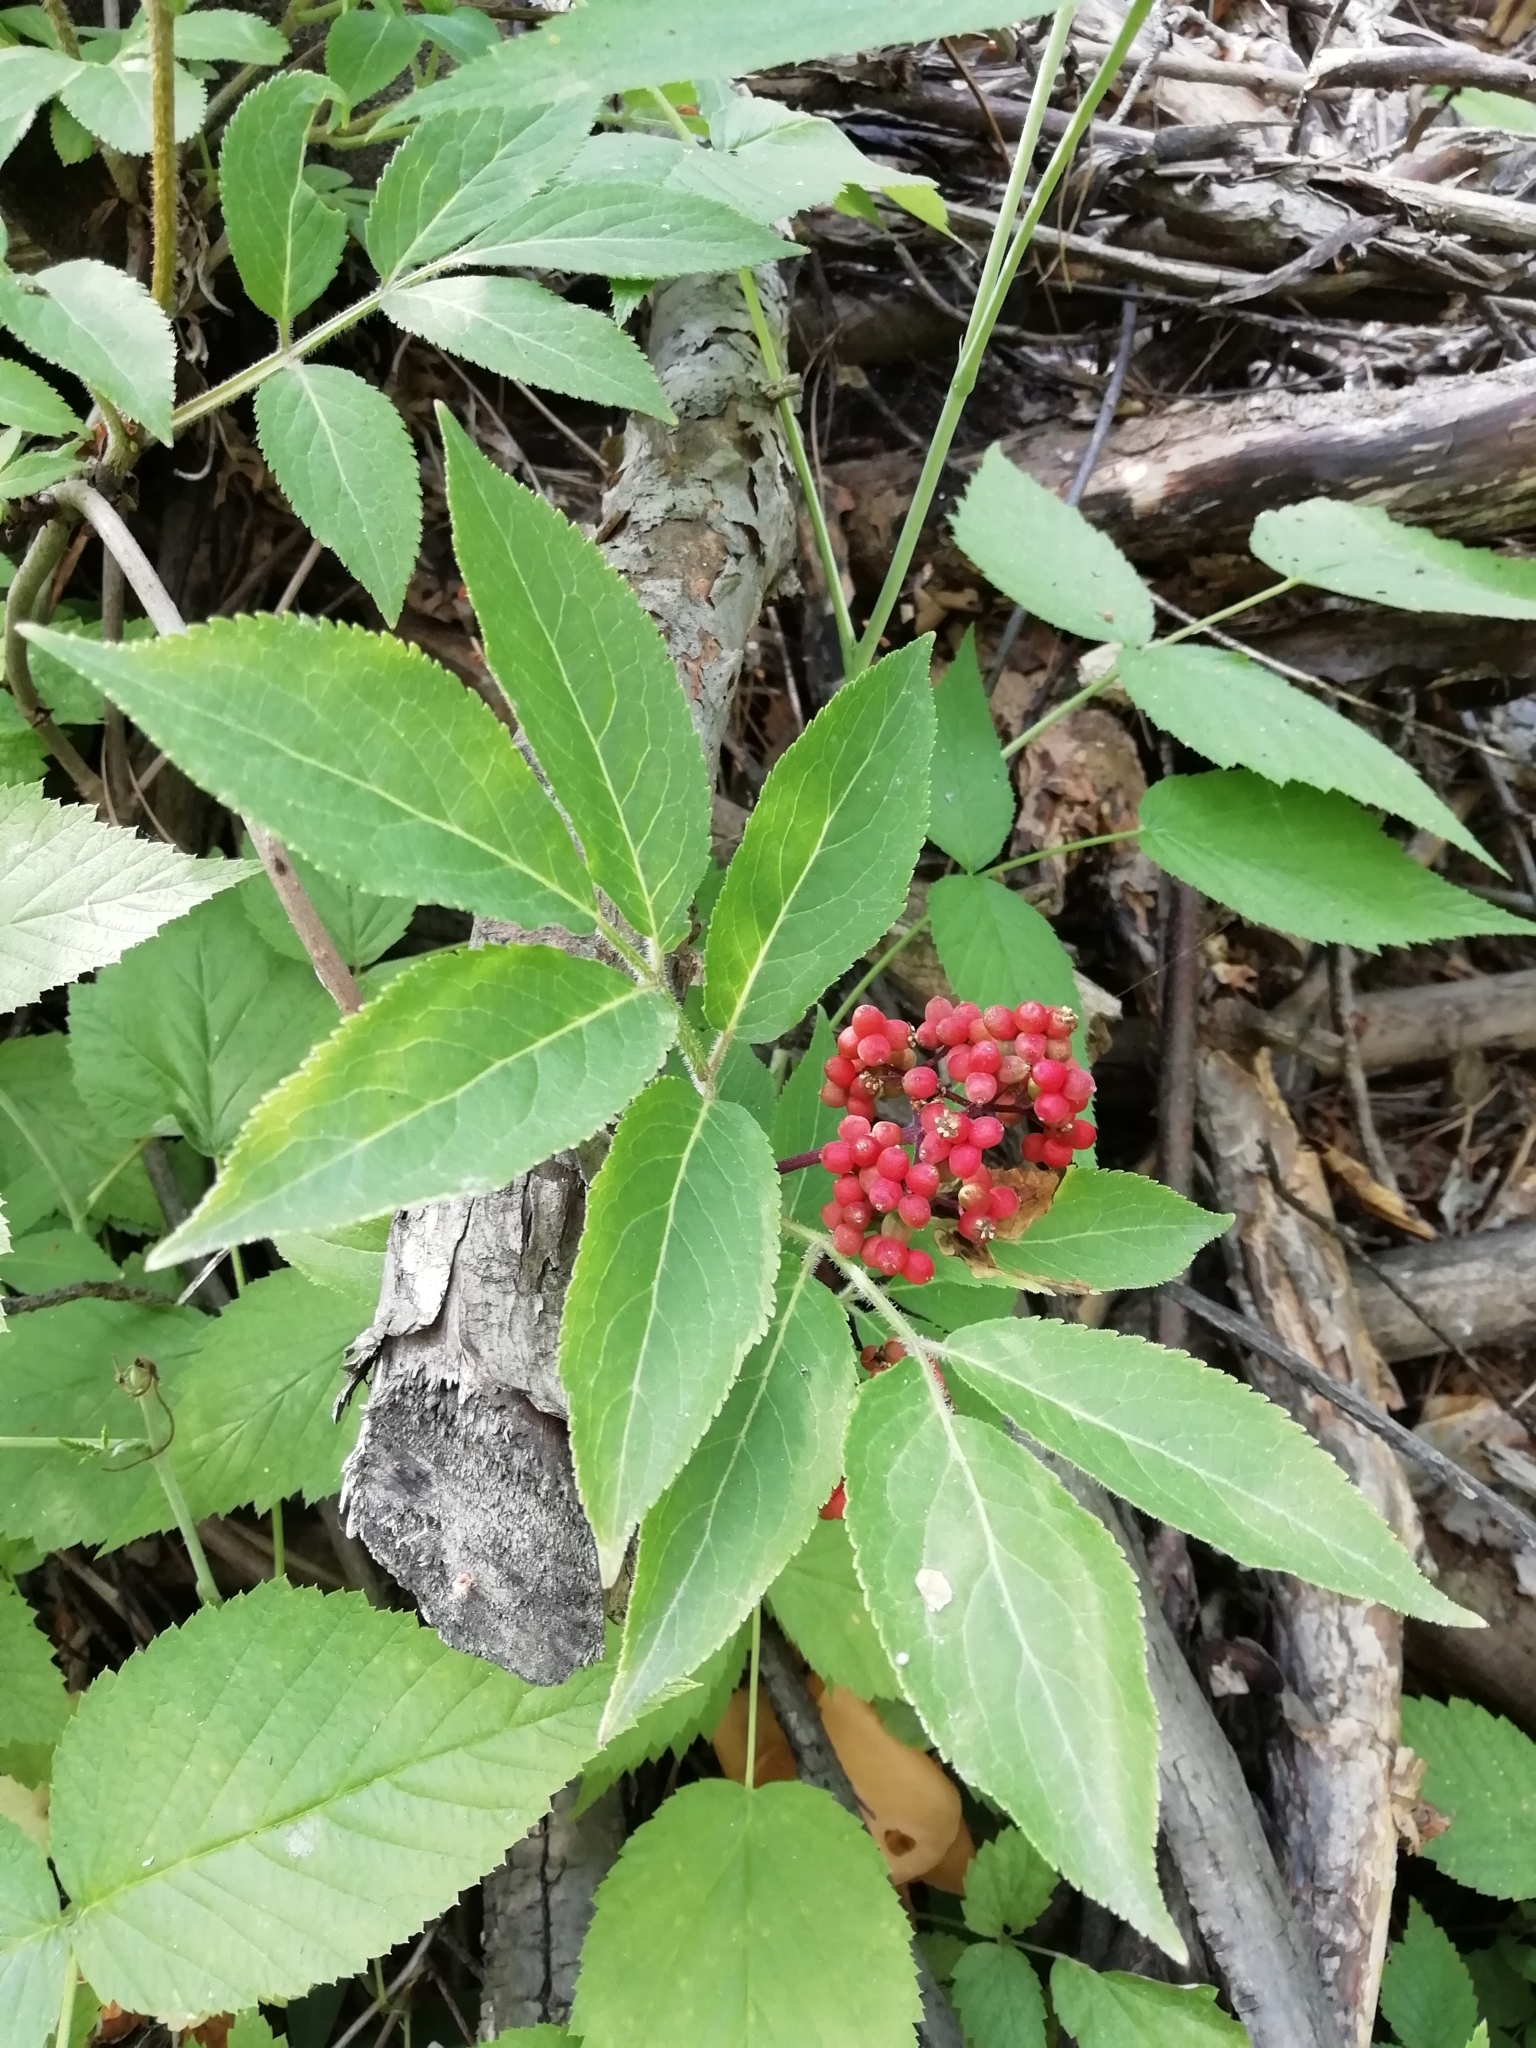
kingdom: Plantae
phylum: Tracheophyta
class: Magnoliopsida
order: Dipsacales
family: Viburnaceae
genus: Sambucus
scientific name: Sambucus racemosa
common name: Red-berried elder
